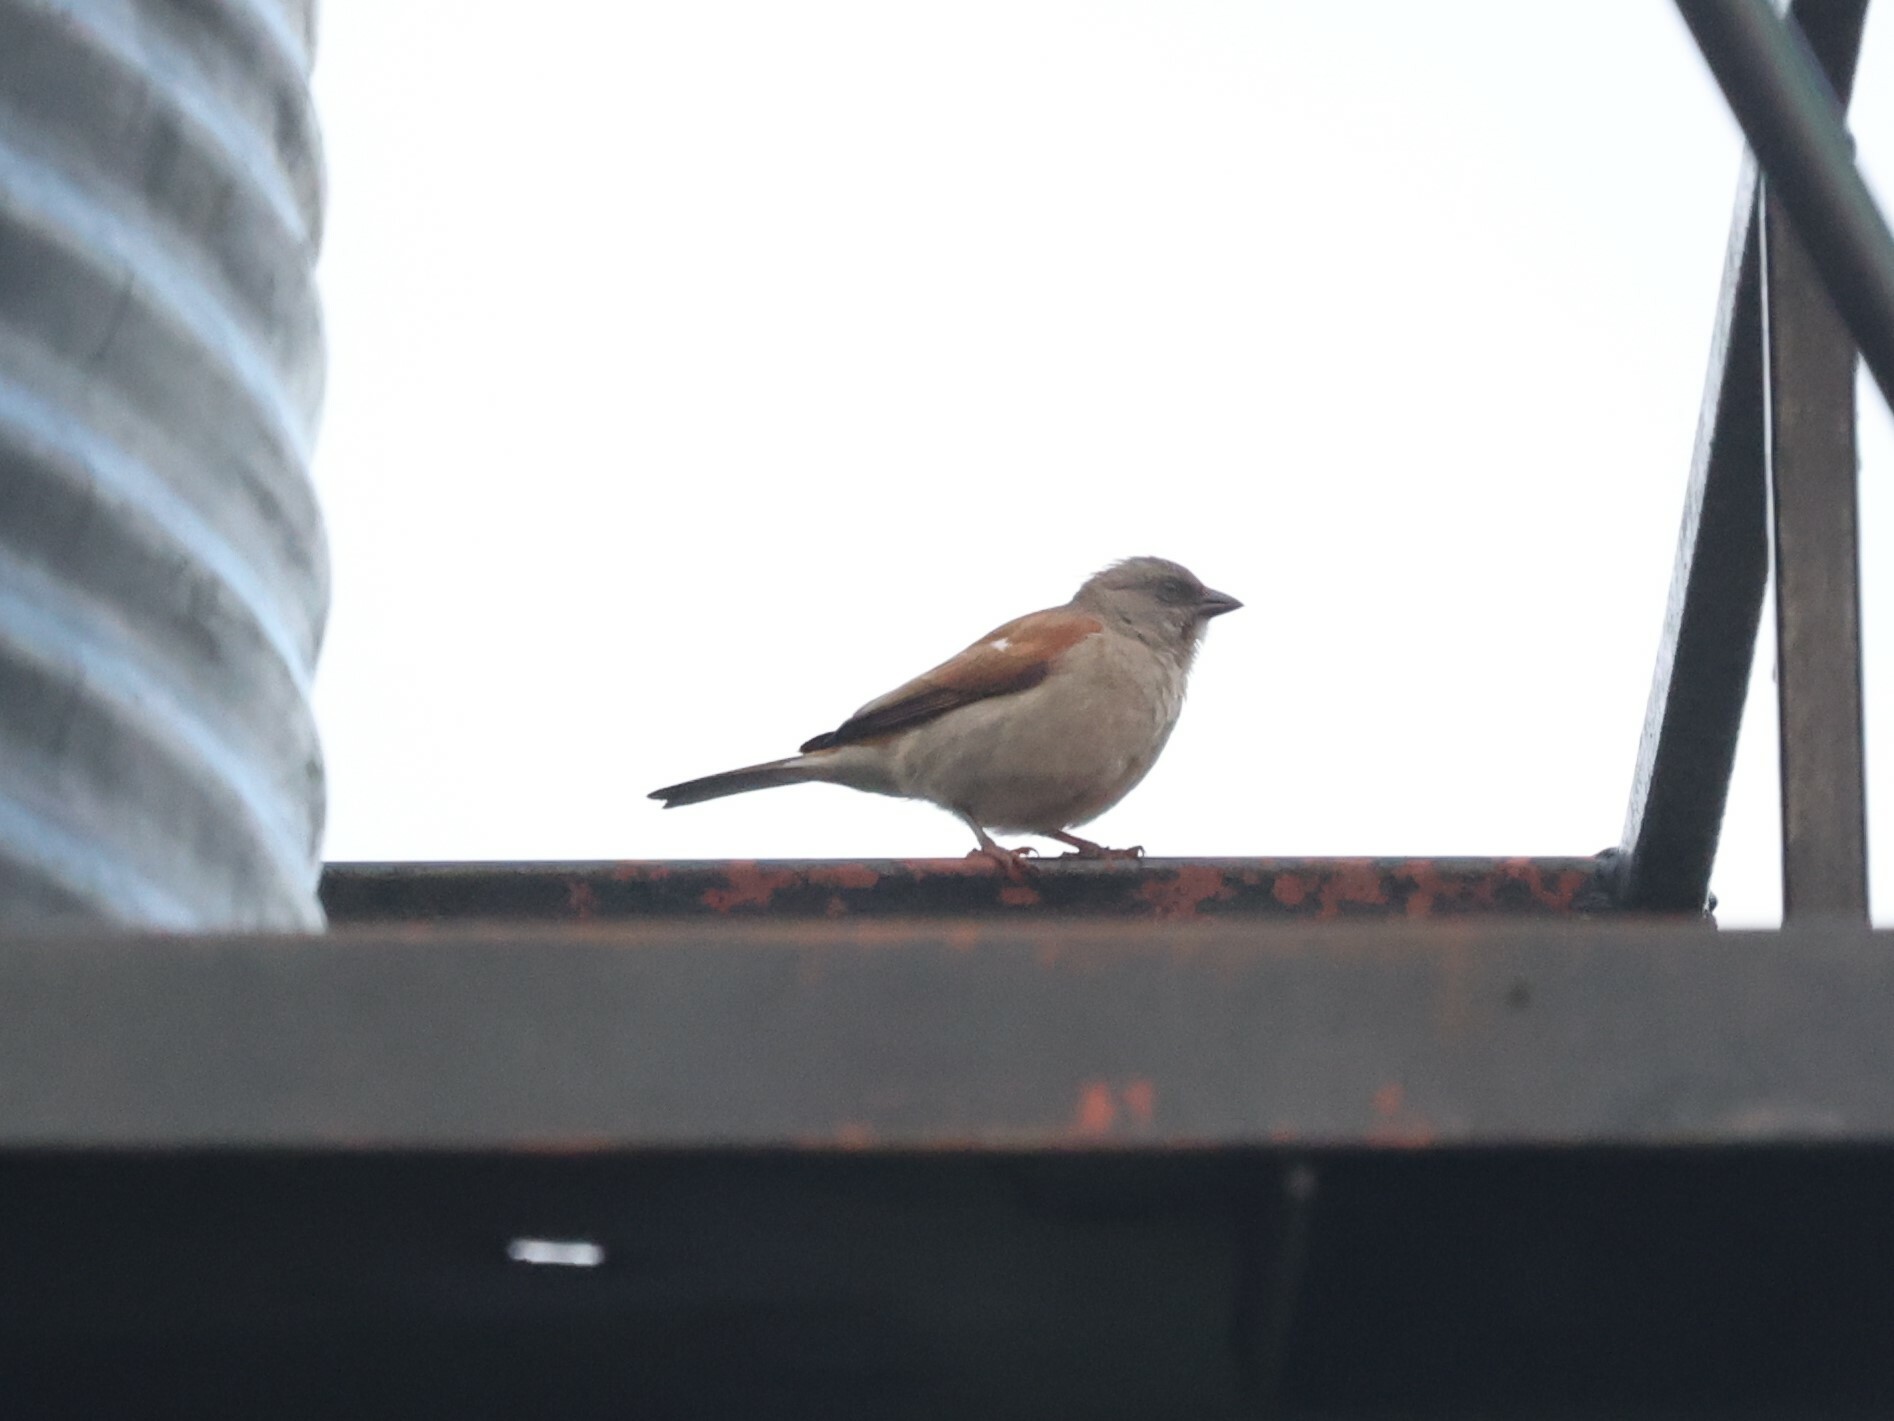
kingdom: Animalia
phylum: Chordata
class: Aves
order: Passeriformes
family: Passeridae
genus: Passer
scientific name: Passer griseus
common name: Northern grey-headed sparrow
